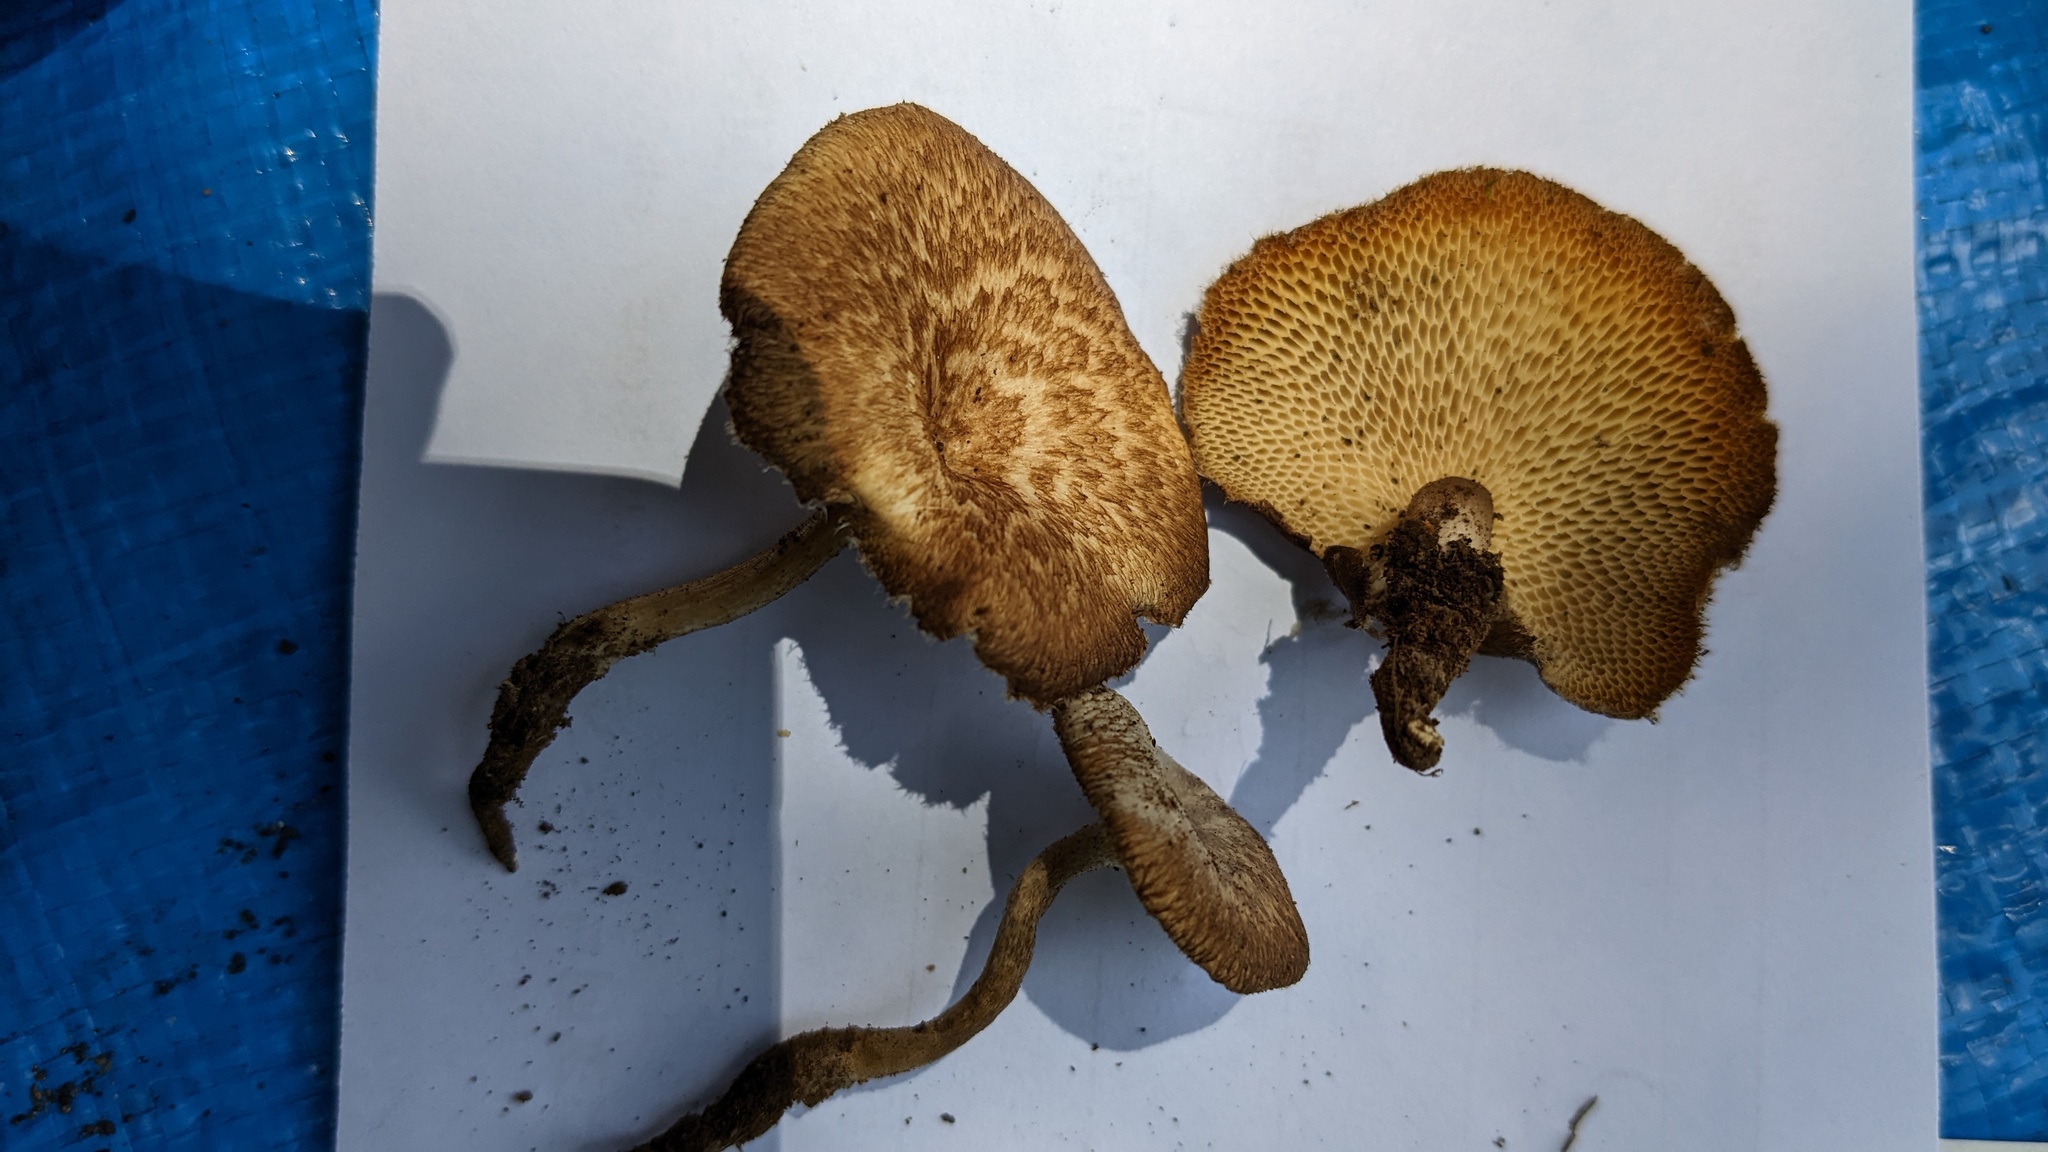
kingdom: Fungi
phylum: Basidiomycota
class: Agaricomycetes
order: Polyporales
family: Polyporaceae
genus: Lentinus
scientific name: Lentinus arcularius
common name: Spring polypore
